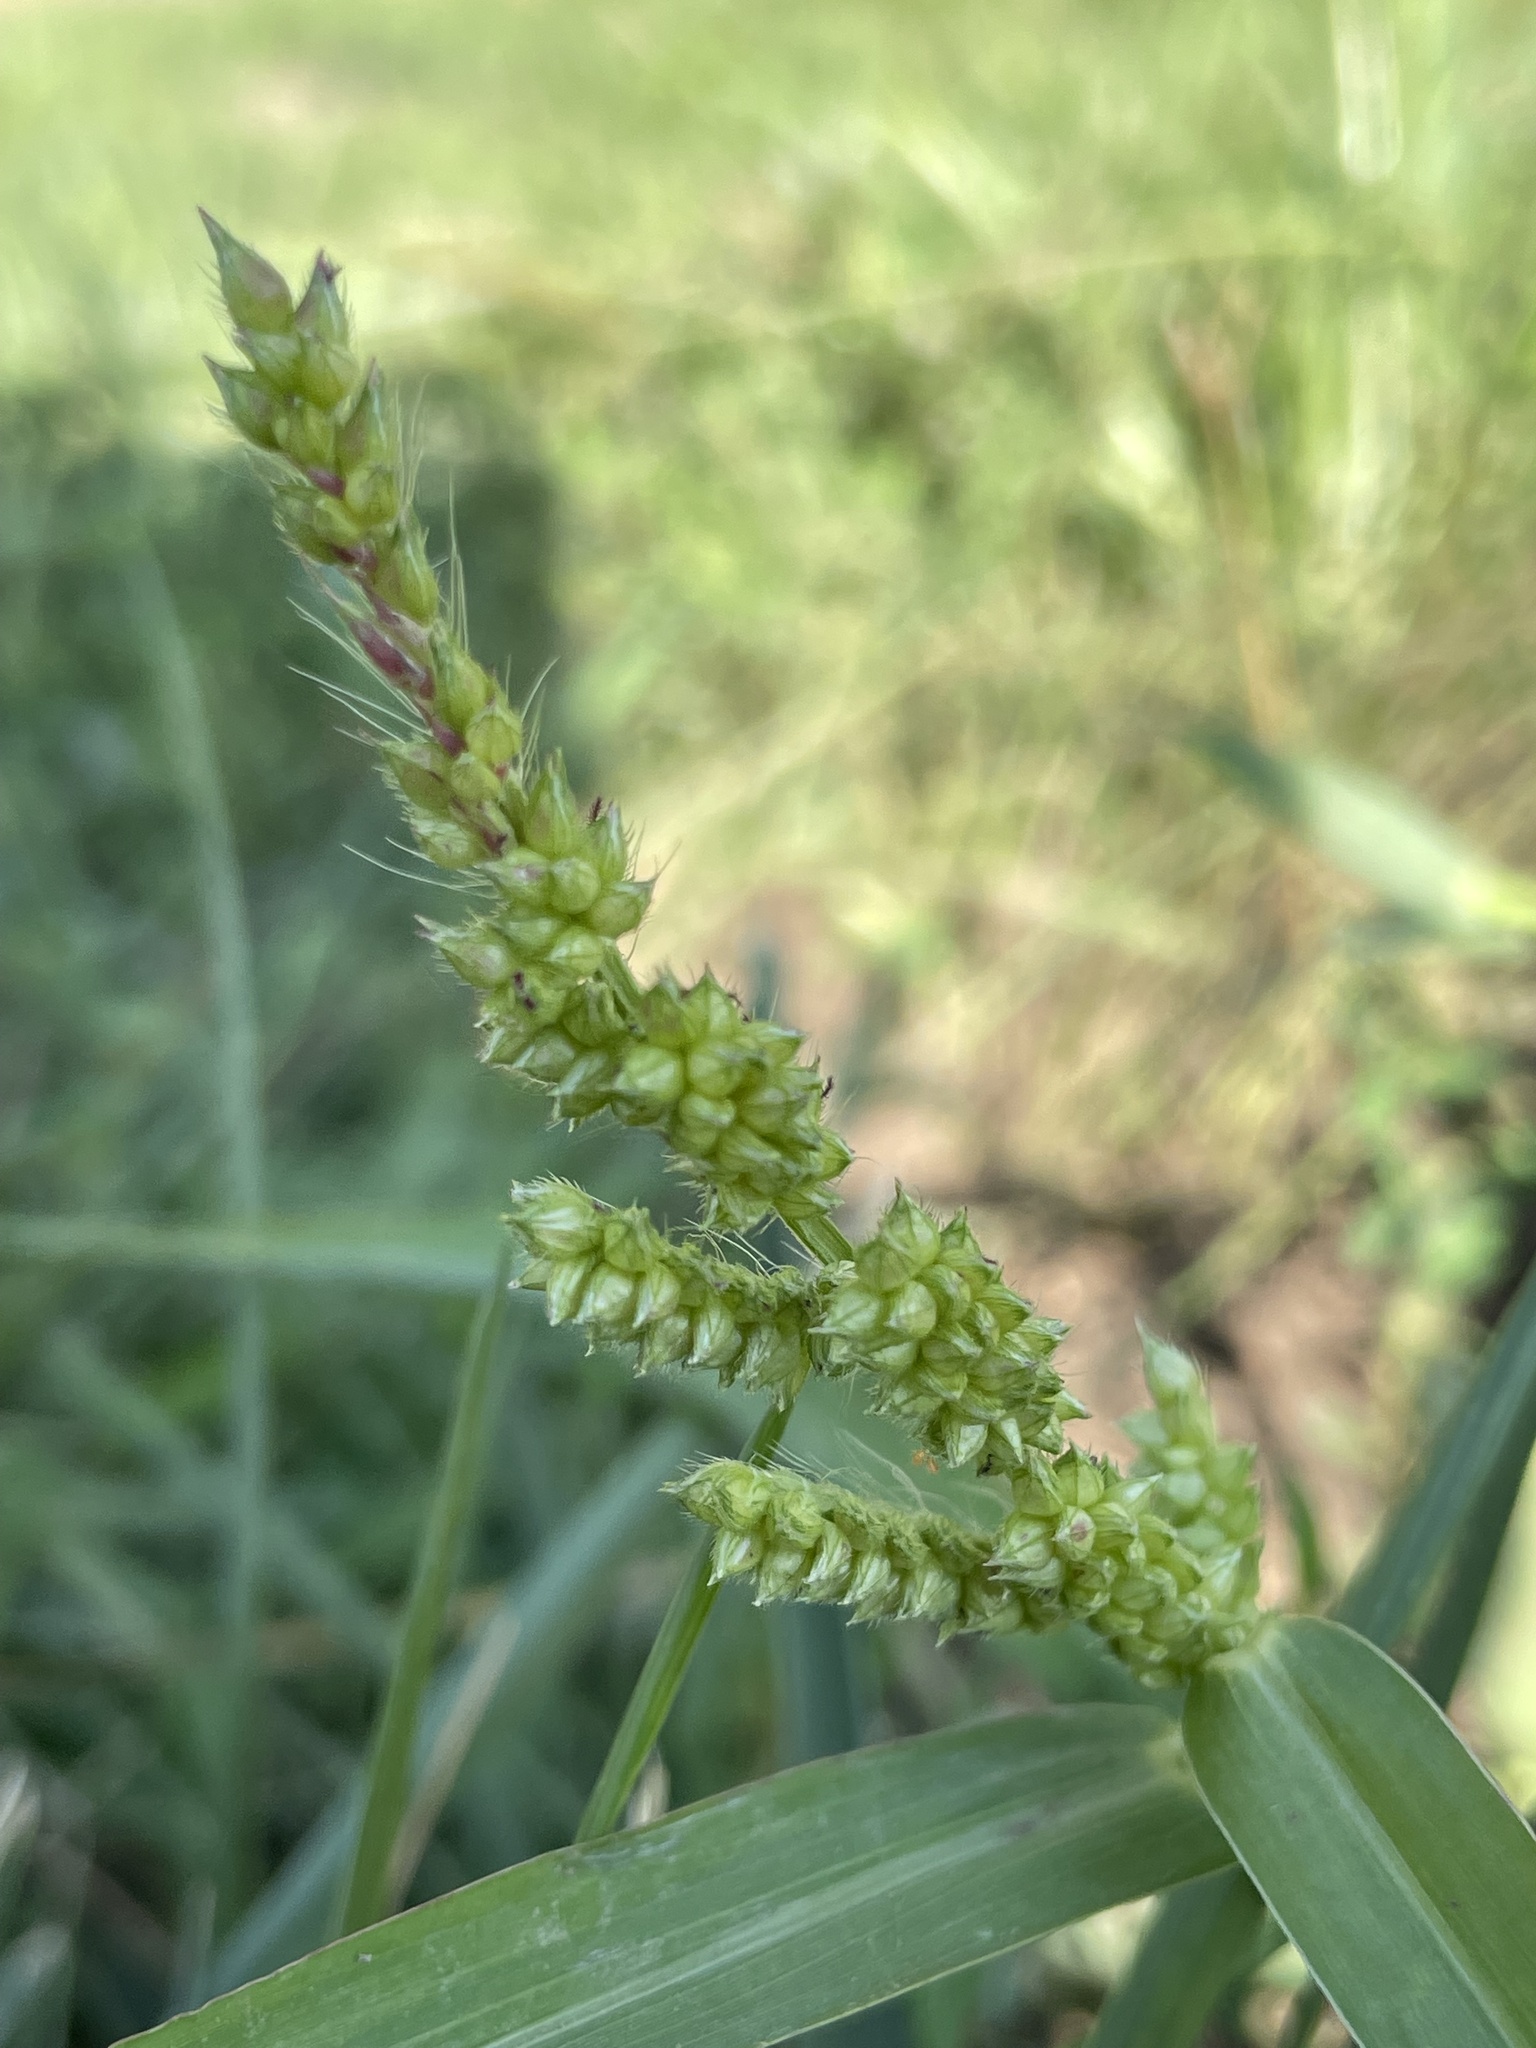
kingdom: Plantae
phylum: Tracheophyta
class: Liliopsida
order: Poales
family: Poaceae
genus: Echinochloa
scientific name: Echinochloa crus-galli
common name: Cockspur
